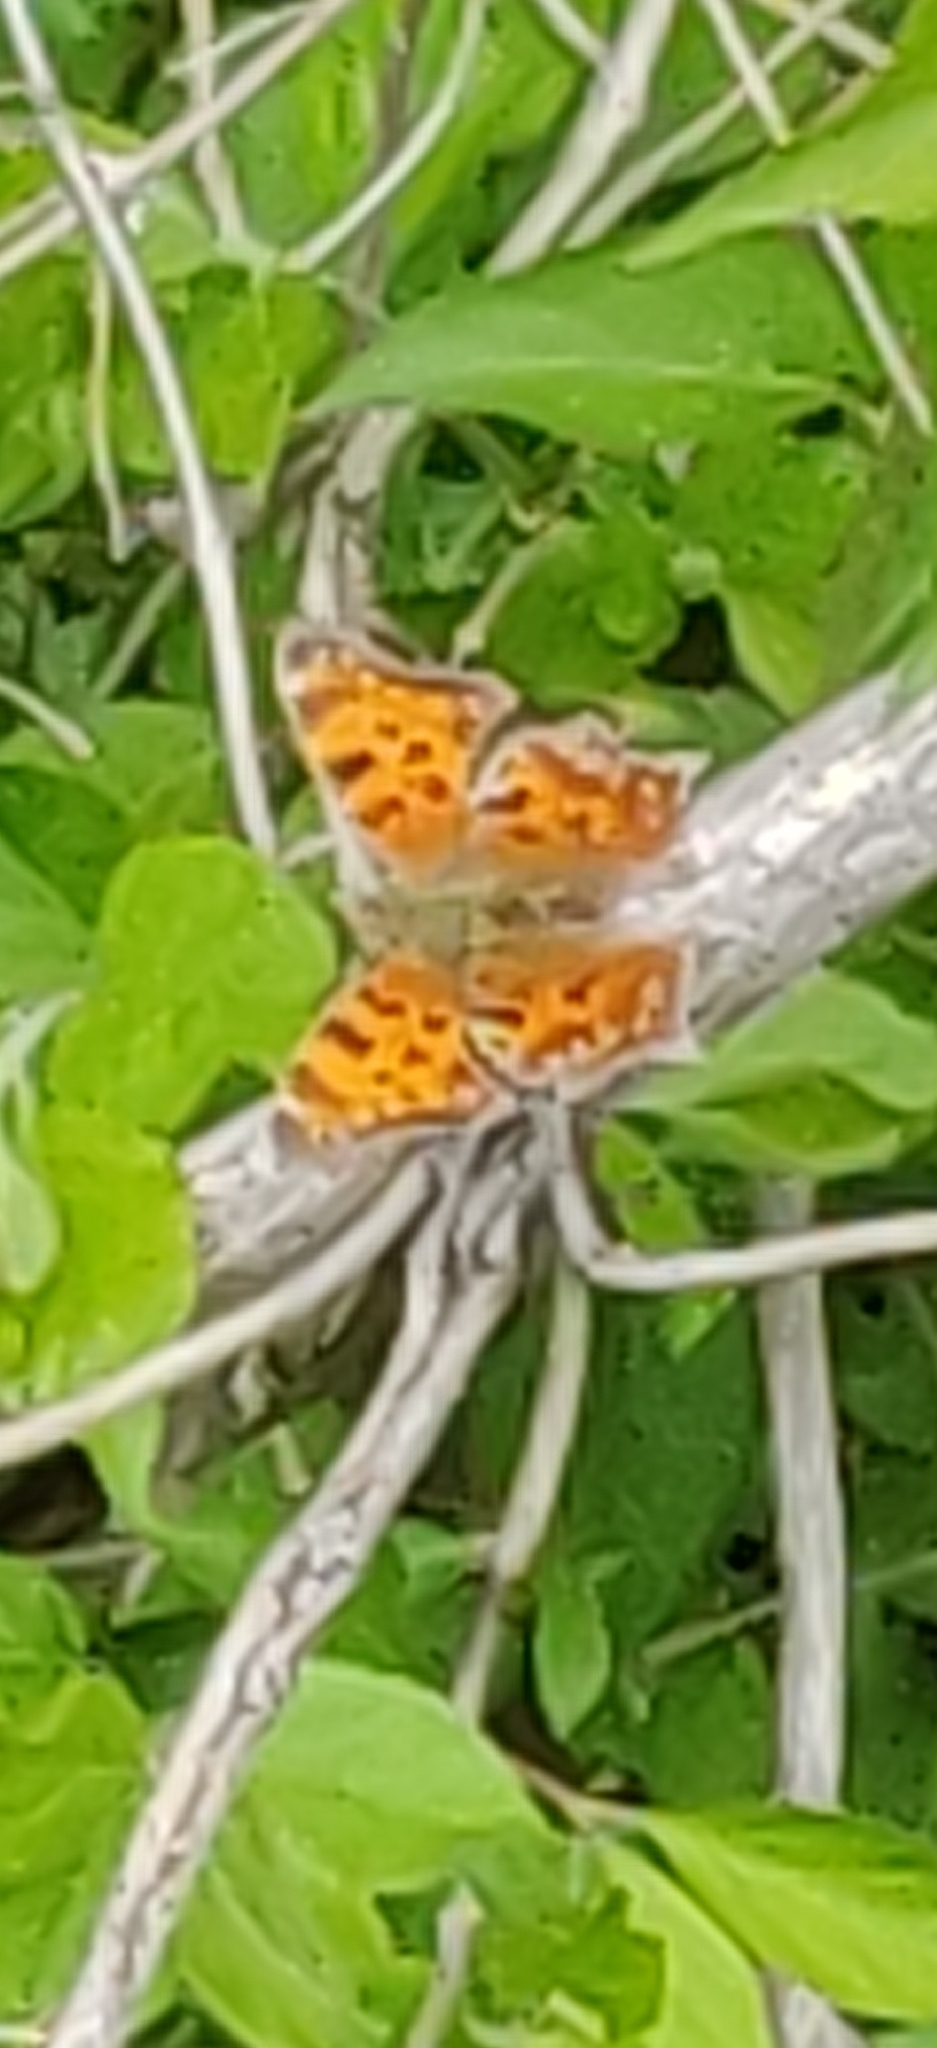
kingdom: Animalia
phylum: Arthropoda
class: Insecta
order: Lepidoptera
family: Nymphalidae
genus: Polygonia
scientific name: Polygonia comma
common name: Eastern comma
